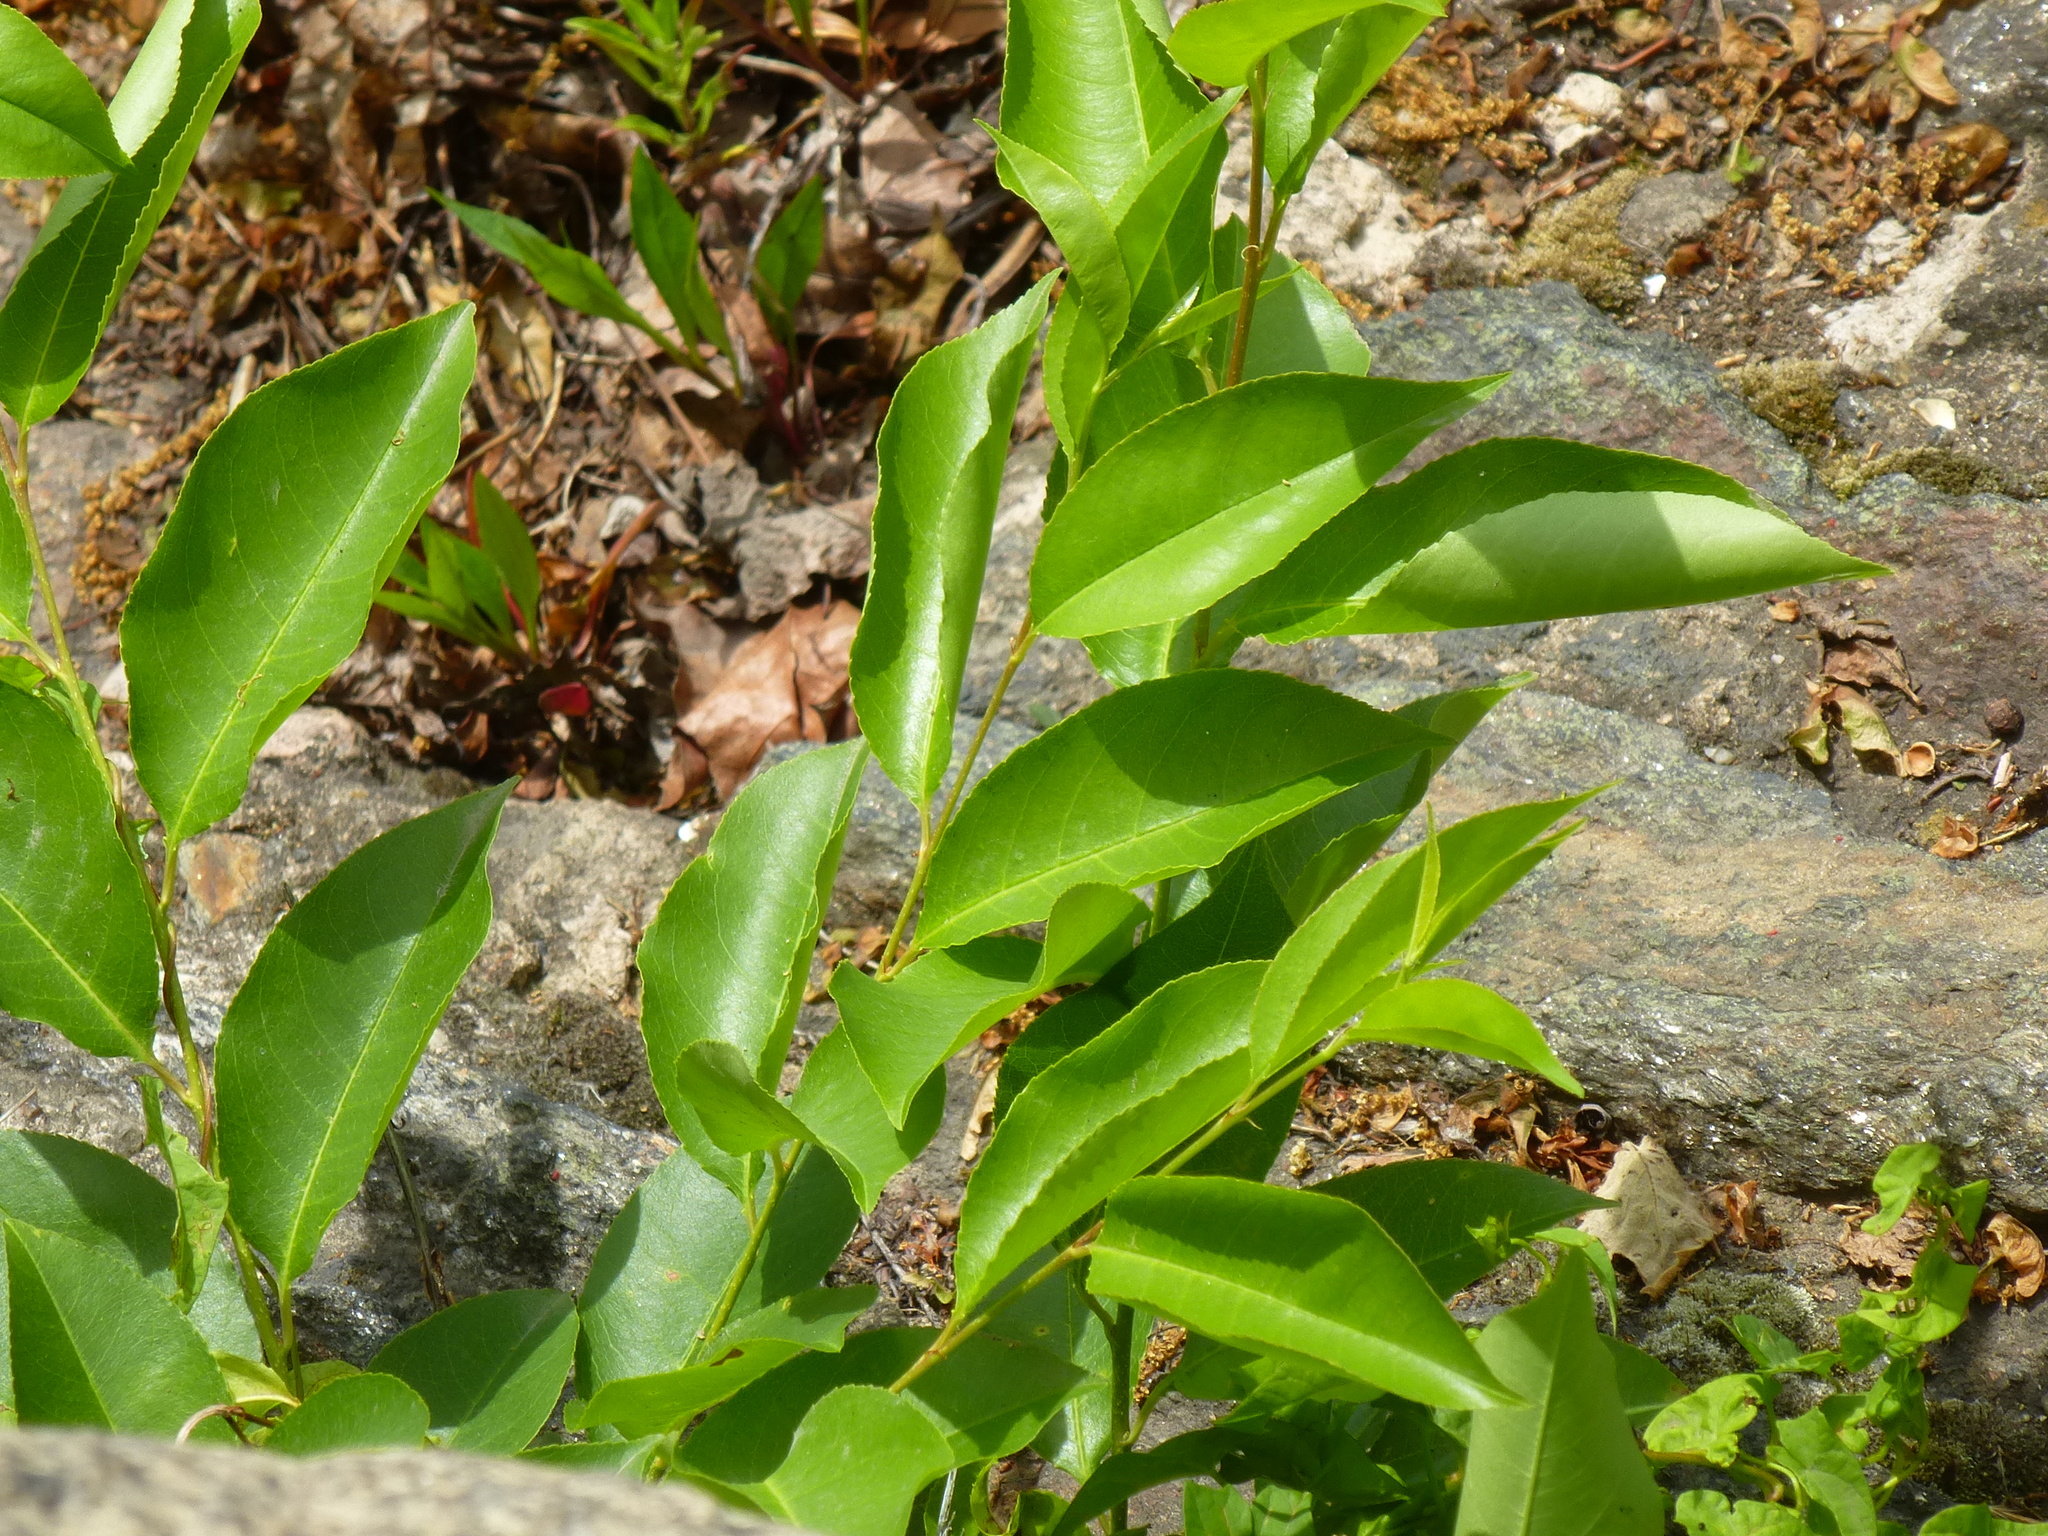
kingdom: Plantae
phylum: Tracheophyta
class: Magnoliopsida
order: Rosales
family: Rosaceae
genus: Prunus
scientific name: Prunus serotina
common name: Black cherry
